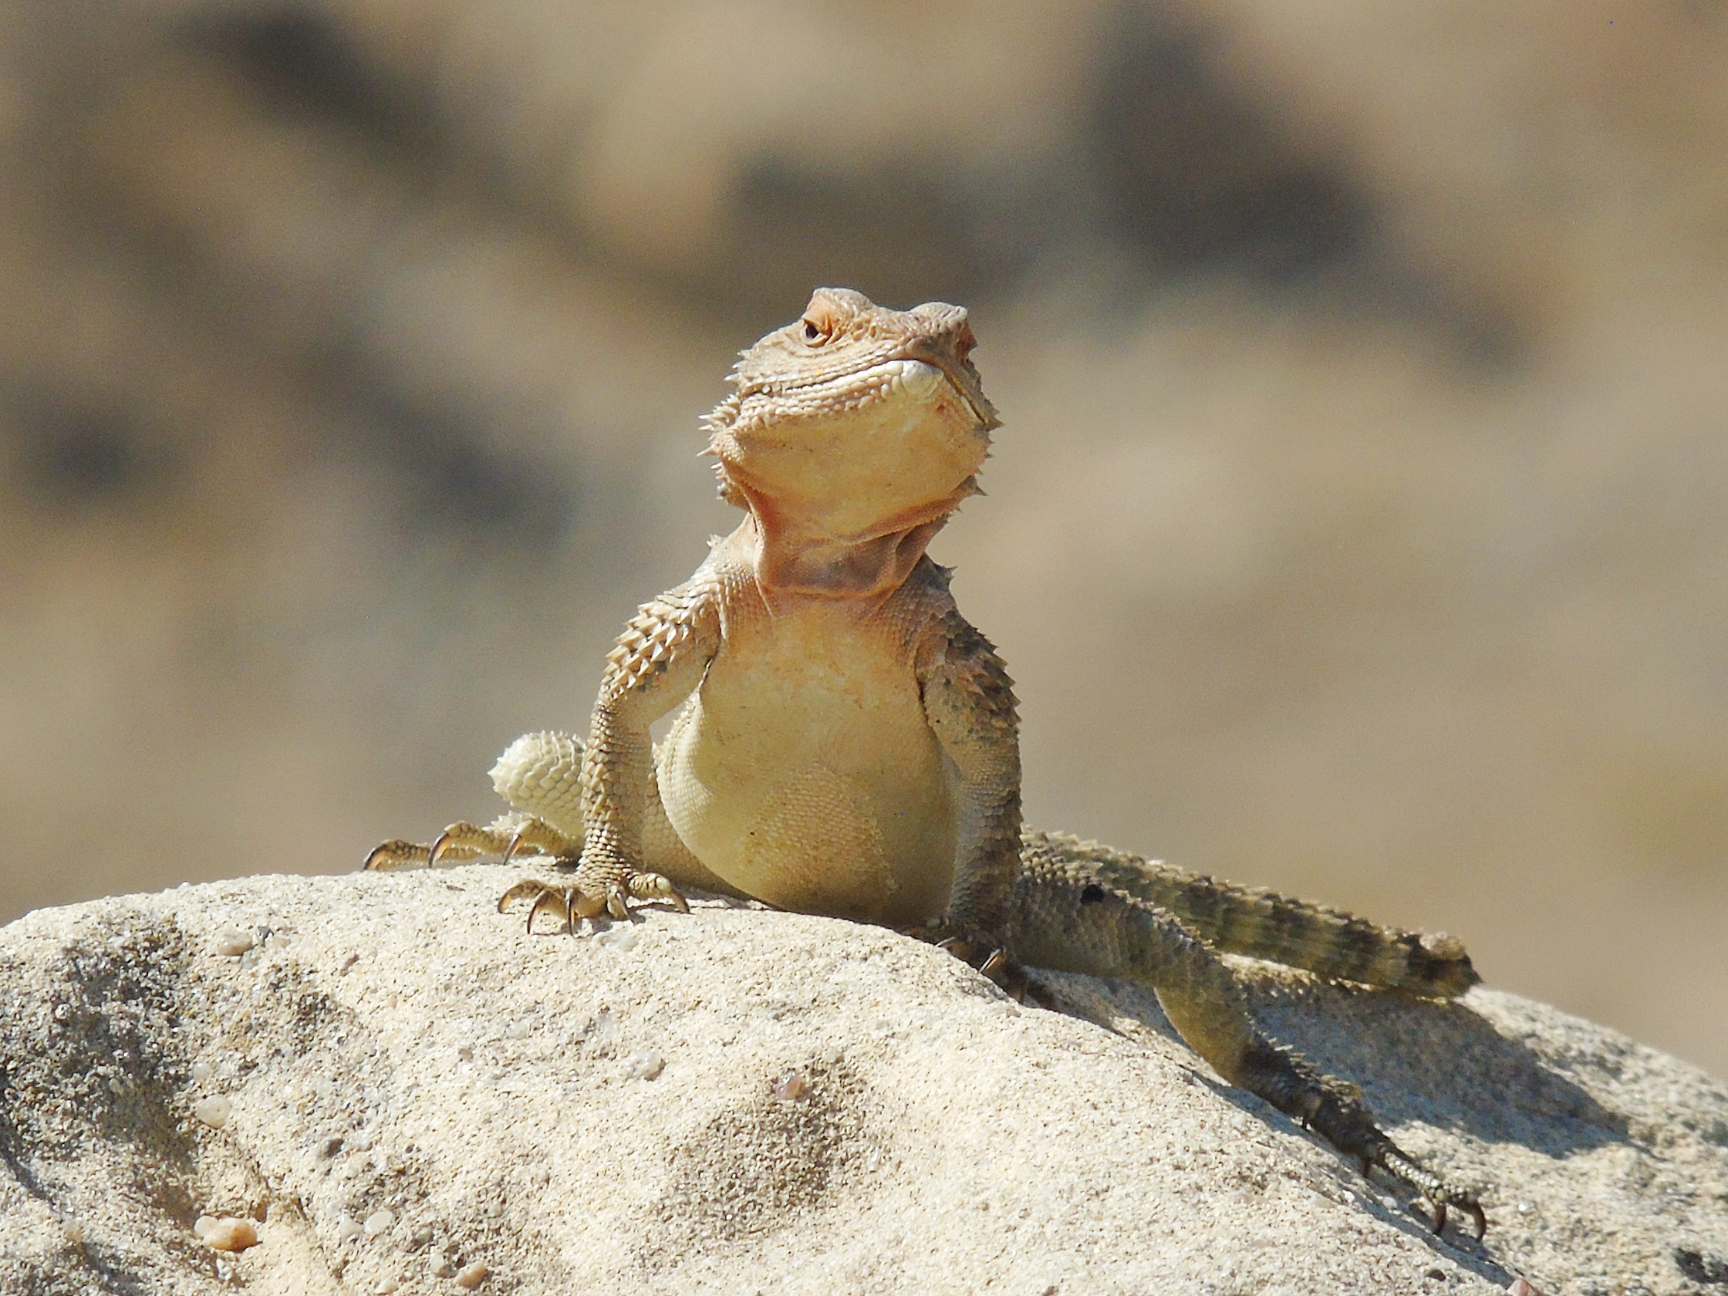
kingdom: Animalia
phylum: Chordata
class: Squamata
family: Agamidae
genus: Paralaudakia
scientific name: Paralaudakia caucasia
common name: Caucasian agama
